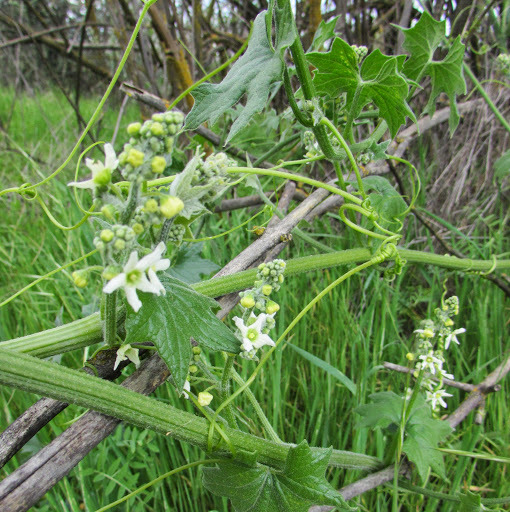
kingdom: Plantae
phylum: Tracheophyta
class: Magnoliopsida
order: Cucurbitales
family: Cucurbitaceae
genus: Marah
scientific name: Marah fabacea
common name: California manroot
